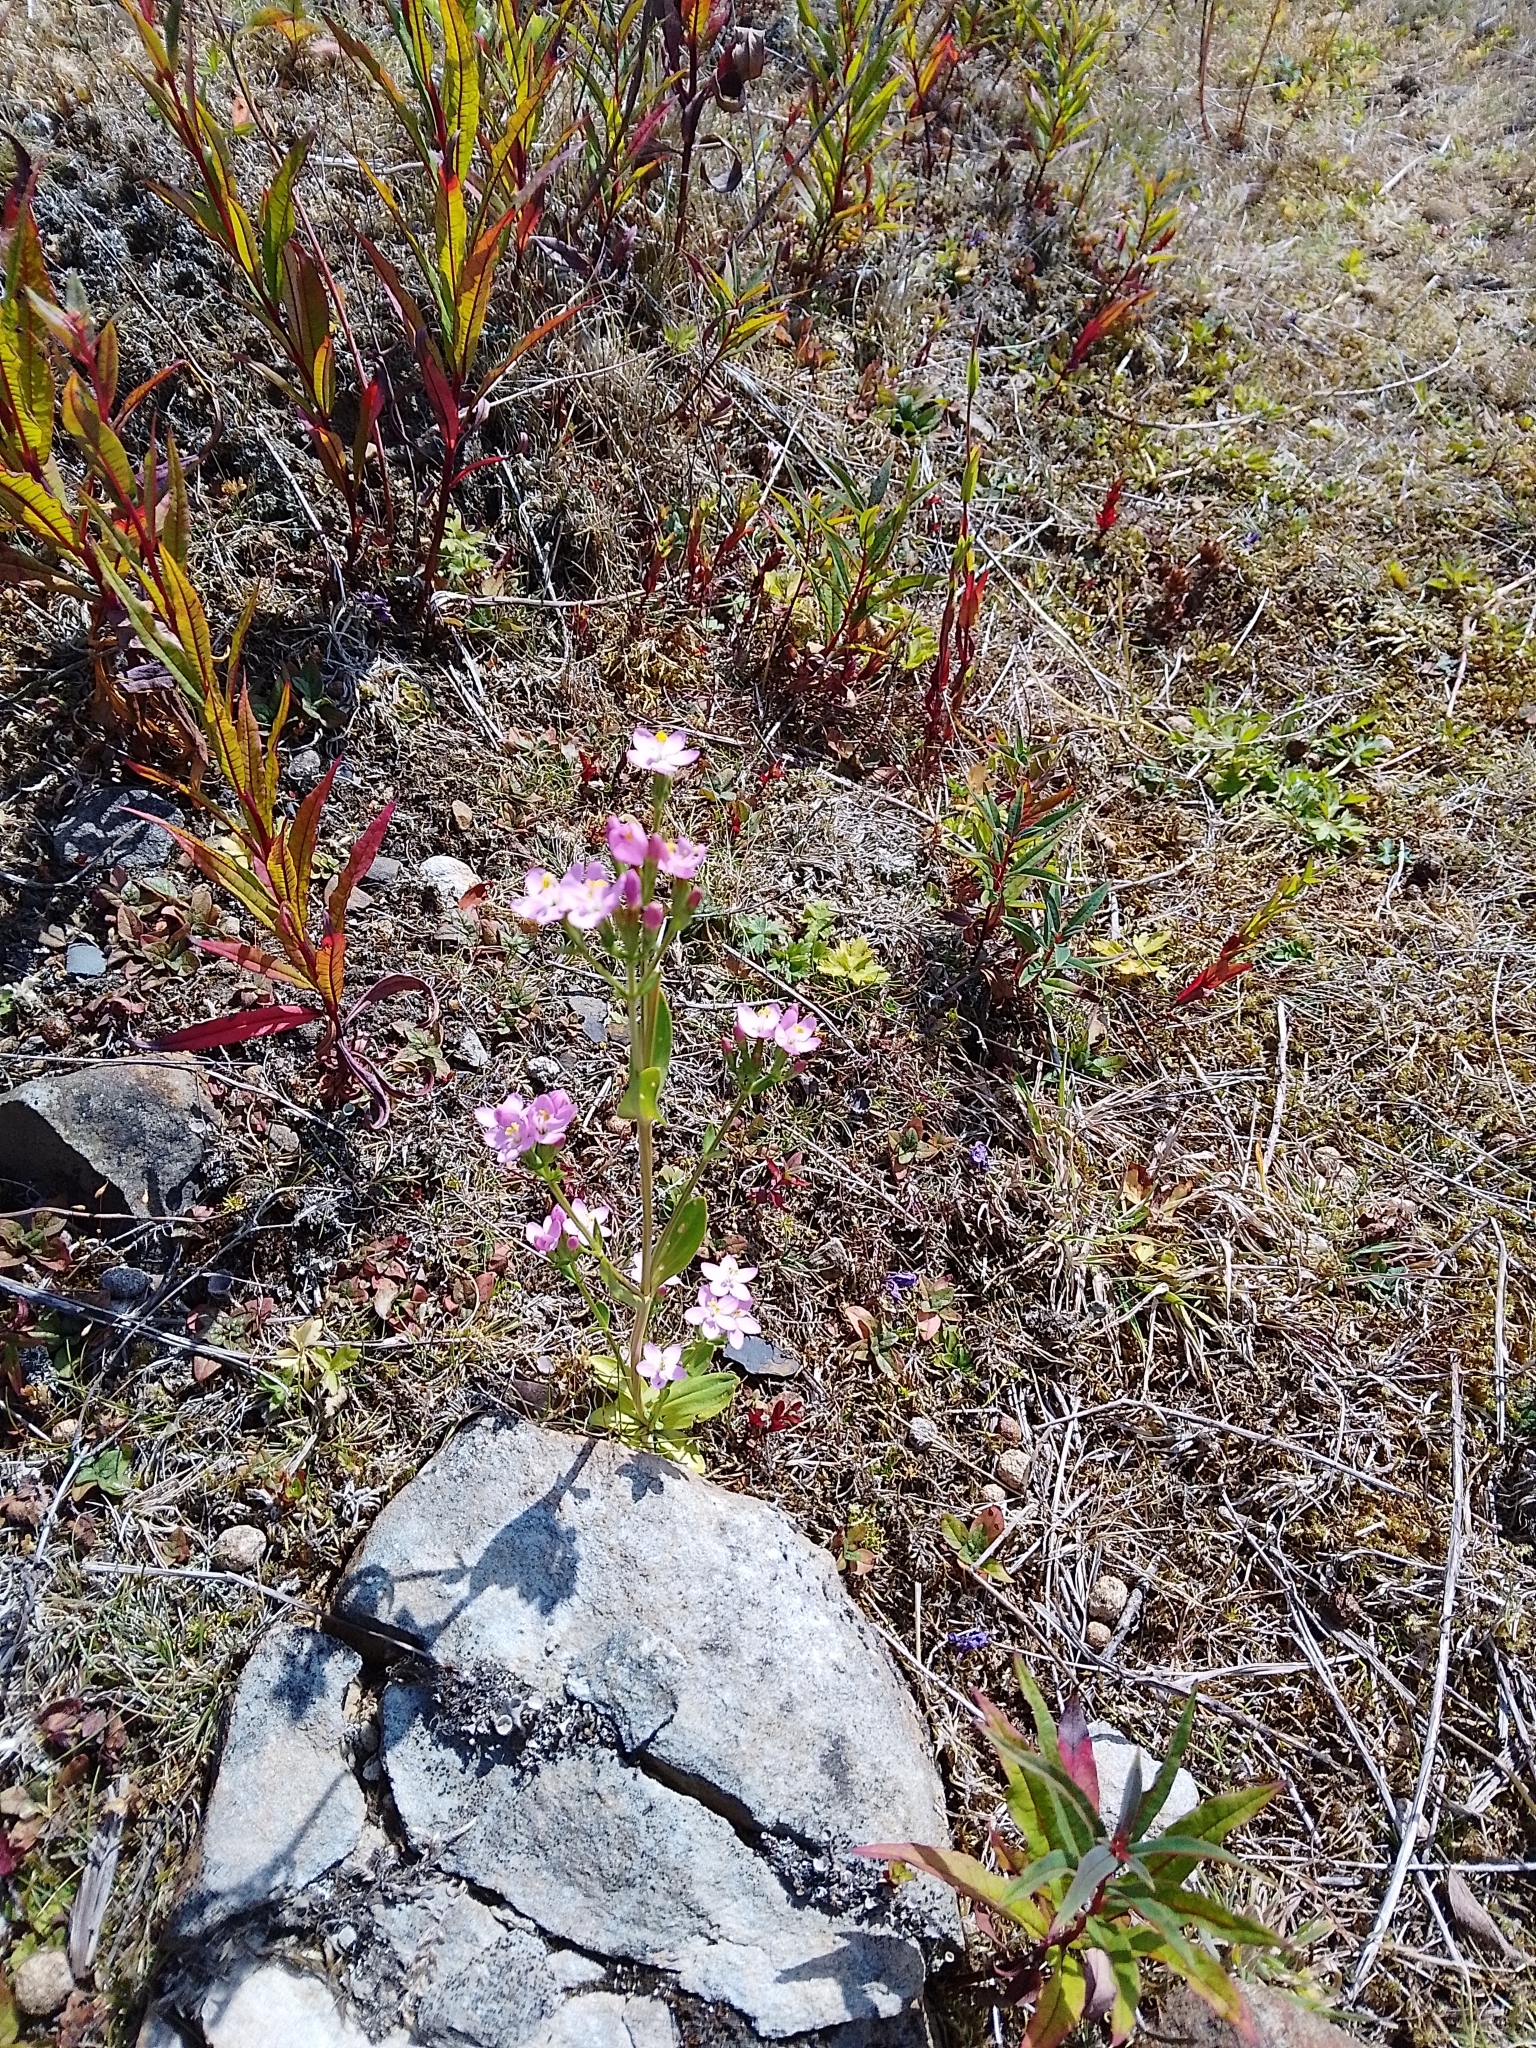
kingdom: Plantae
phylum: Tracheophyta
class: Magnoliopsida
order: Gentianales
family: Gentianaceae
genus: Centaurium
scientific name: Centaurium erythraea
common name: Common centaury
